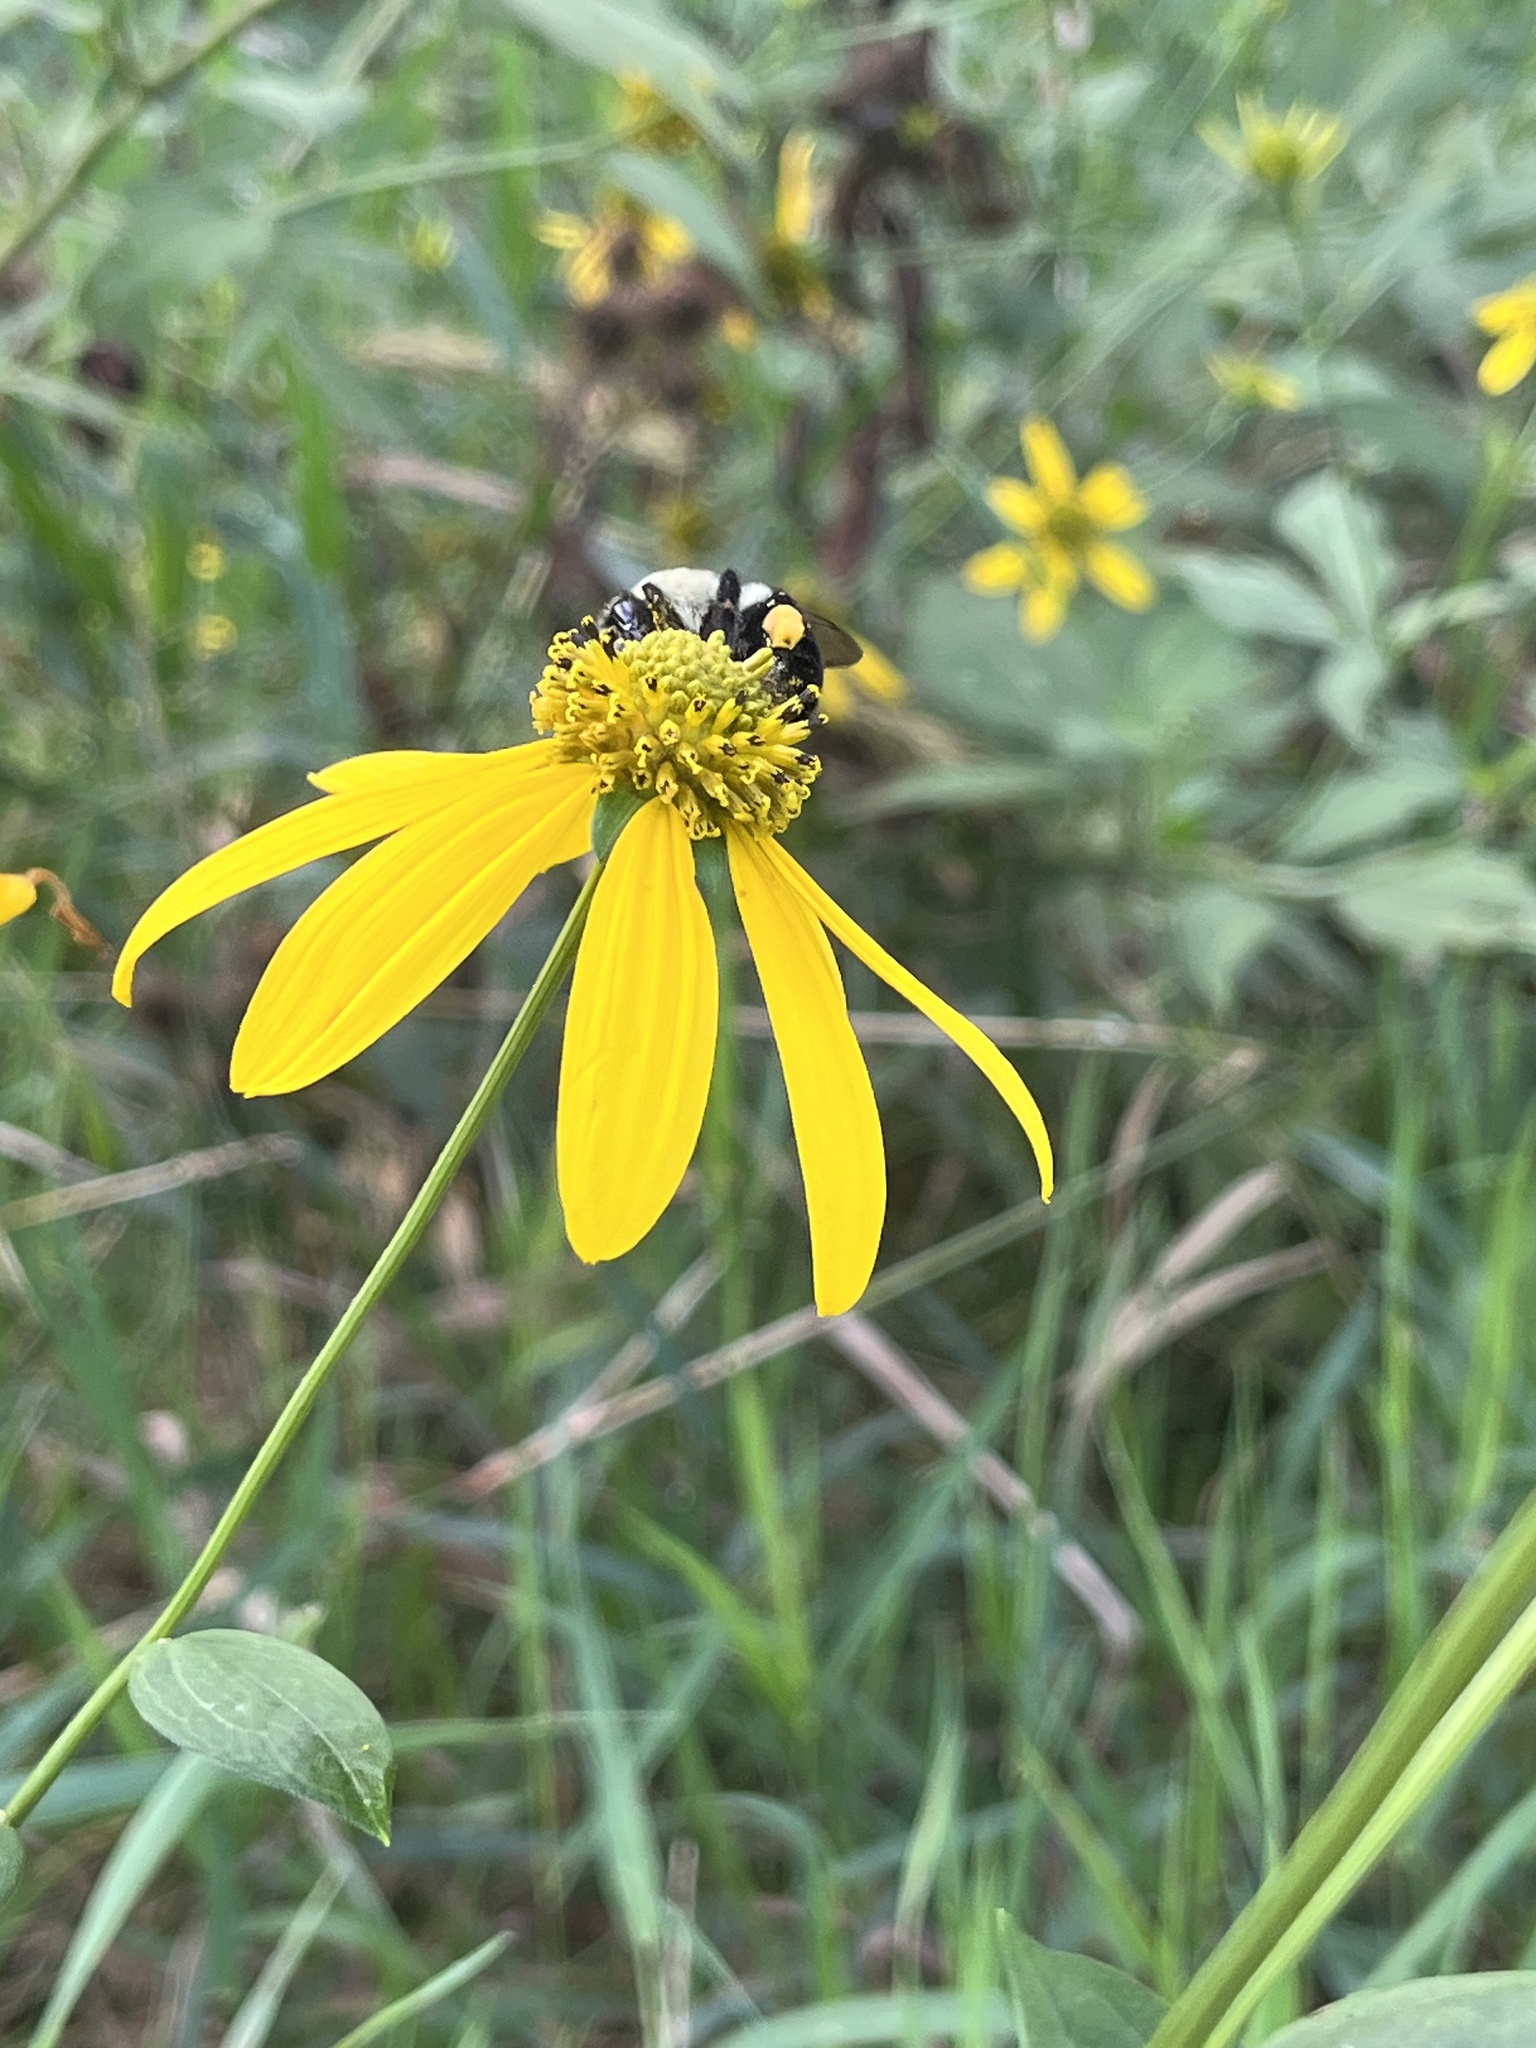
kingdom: Animalia
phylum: Arthropoda
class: Insecta
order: Hymenoptera
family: Apidae
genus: Bombus
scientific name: Bombus impatiens
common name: Common eastern bumble bee
